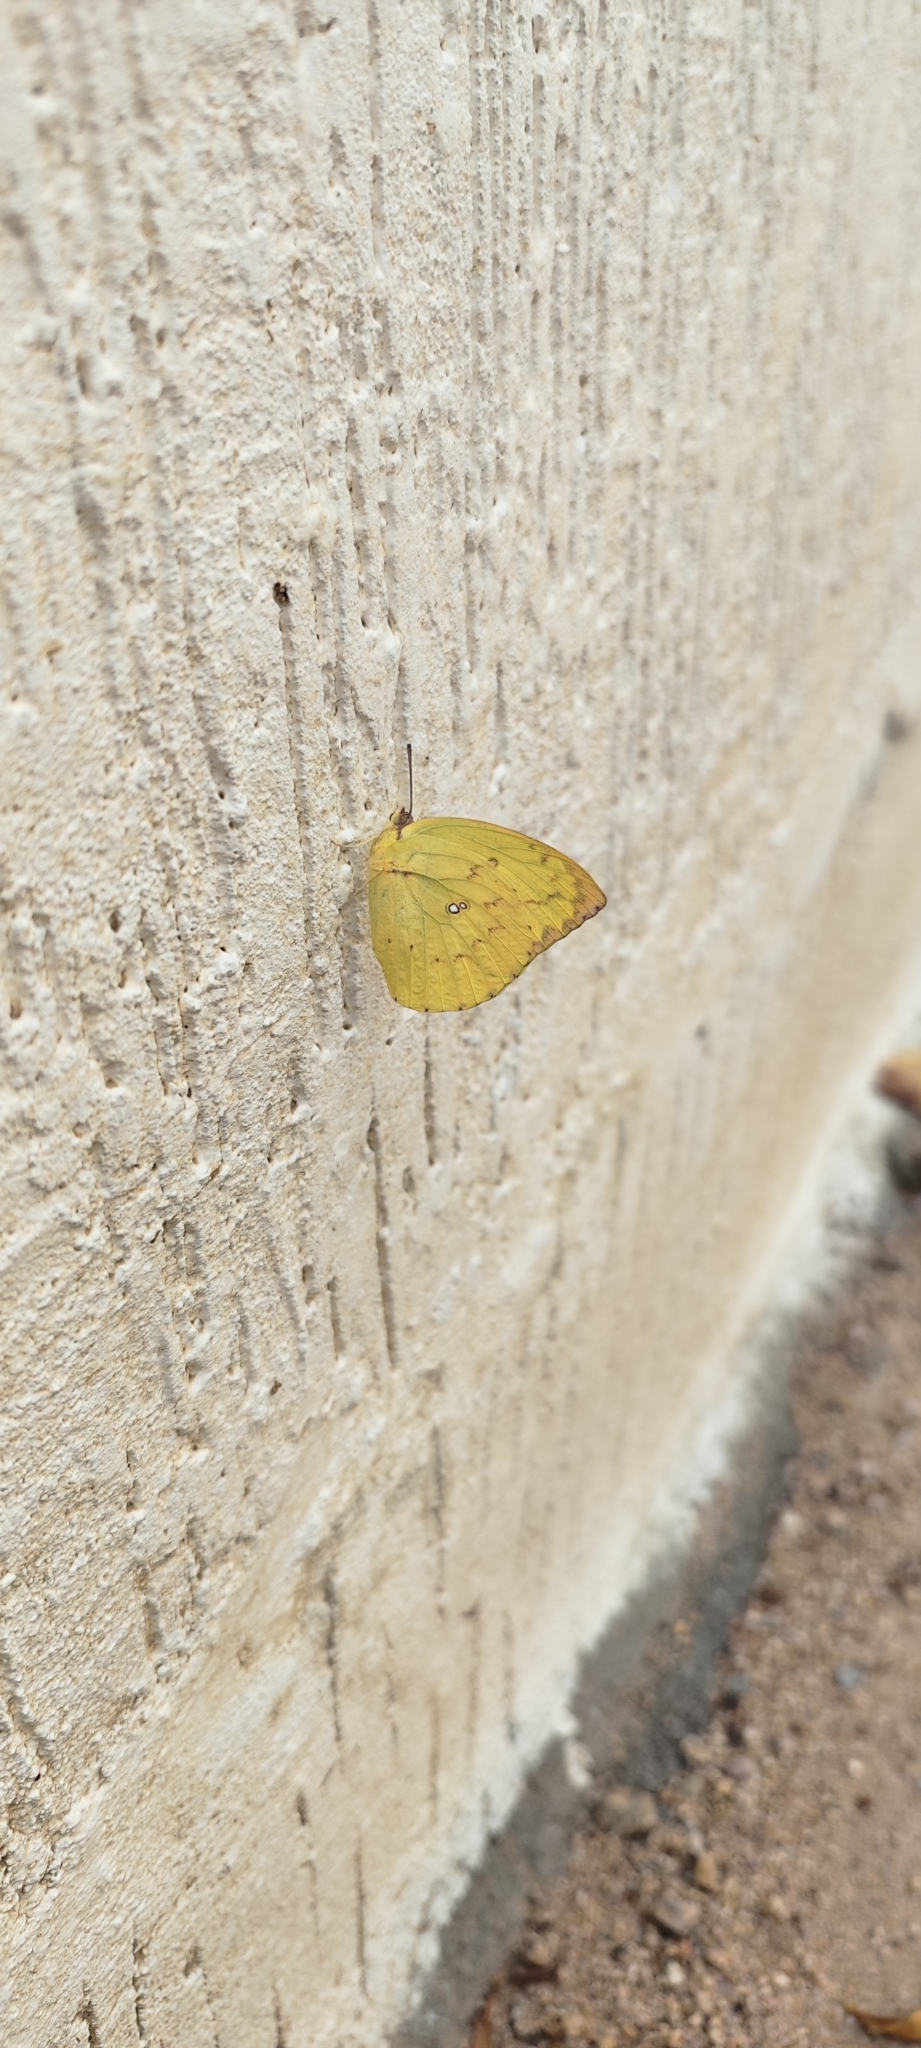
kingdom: Animalia
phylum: Arthropoda
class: Insecta
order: Lepidoptera
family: Pieridae
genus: Catopsilia
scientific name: Catopsilia pomona
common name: Common emigrant
